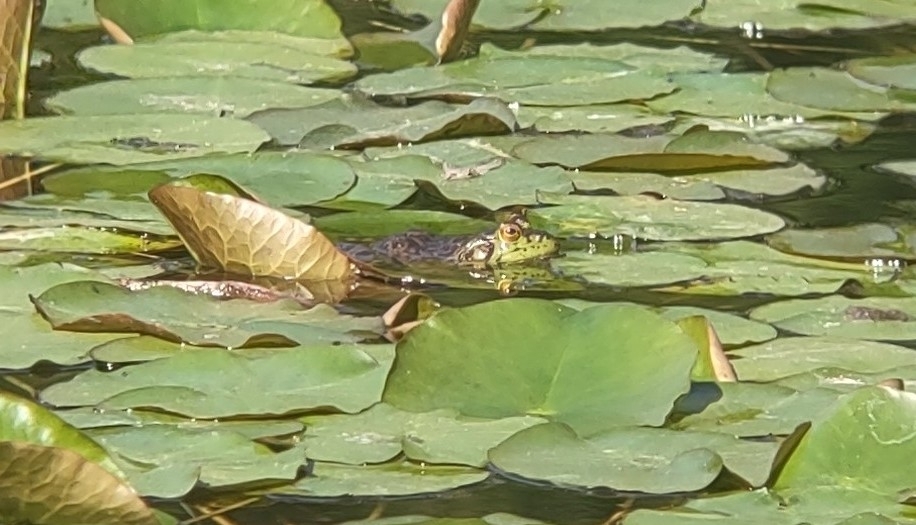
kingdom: Animalia
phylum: Chordata
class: Amphibia
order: Anura
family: Ranidae
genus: Lithobates
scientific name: Lithobates catesbeianus
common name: American bullfrog
